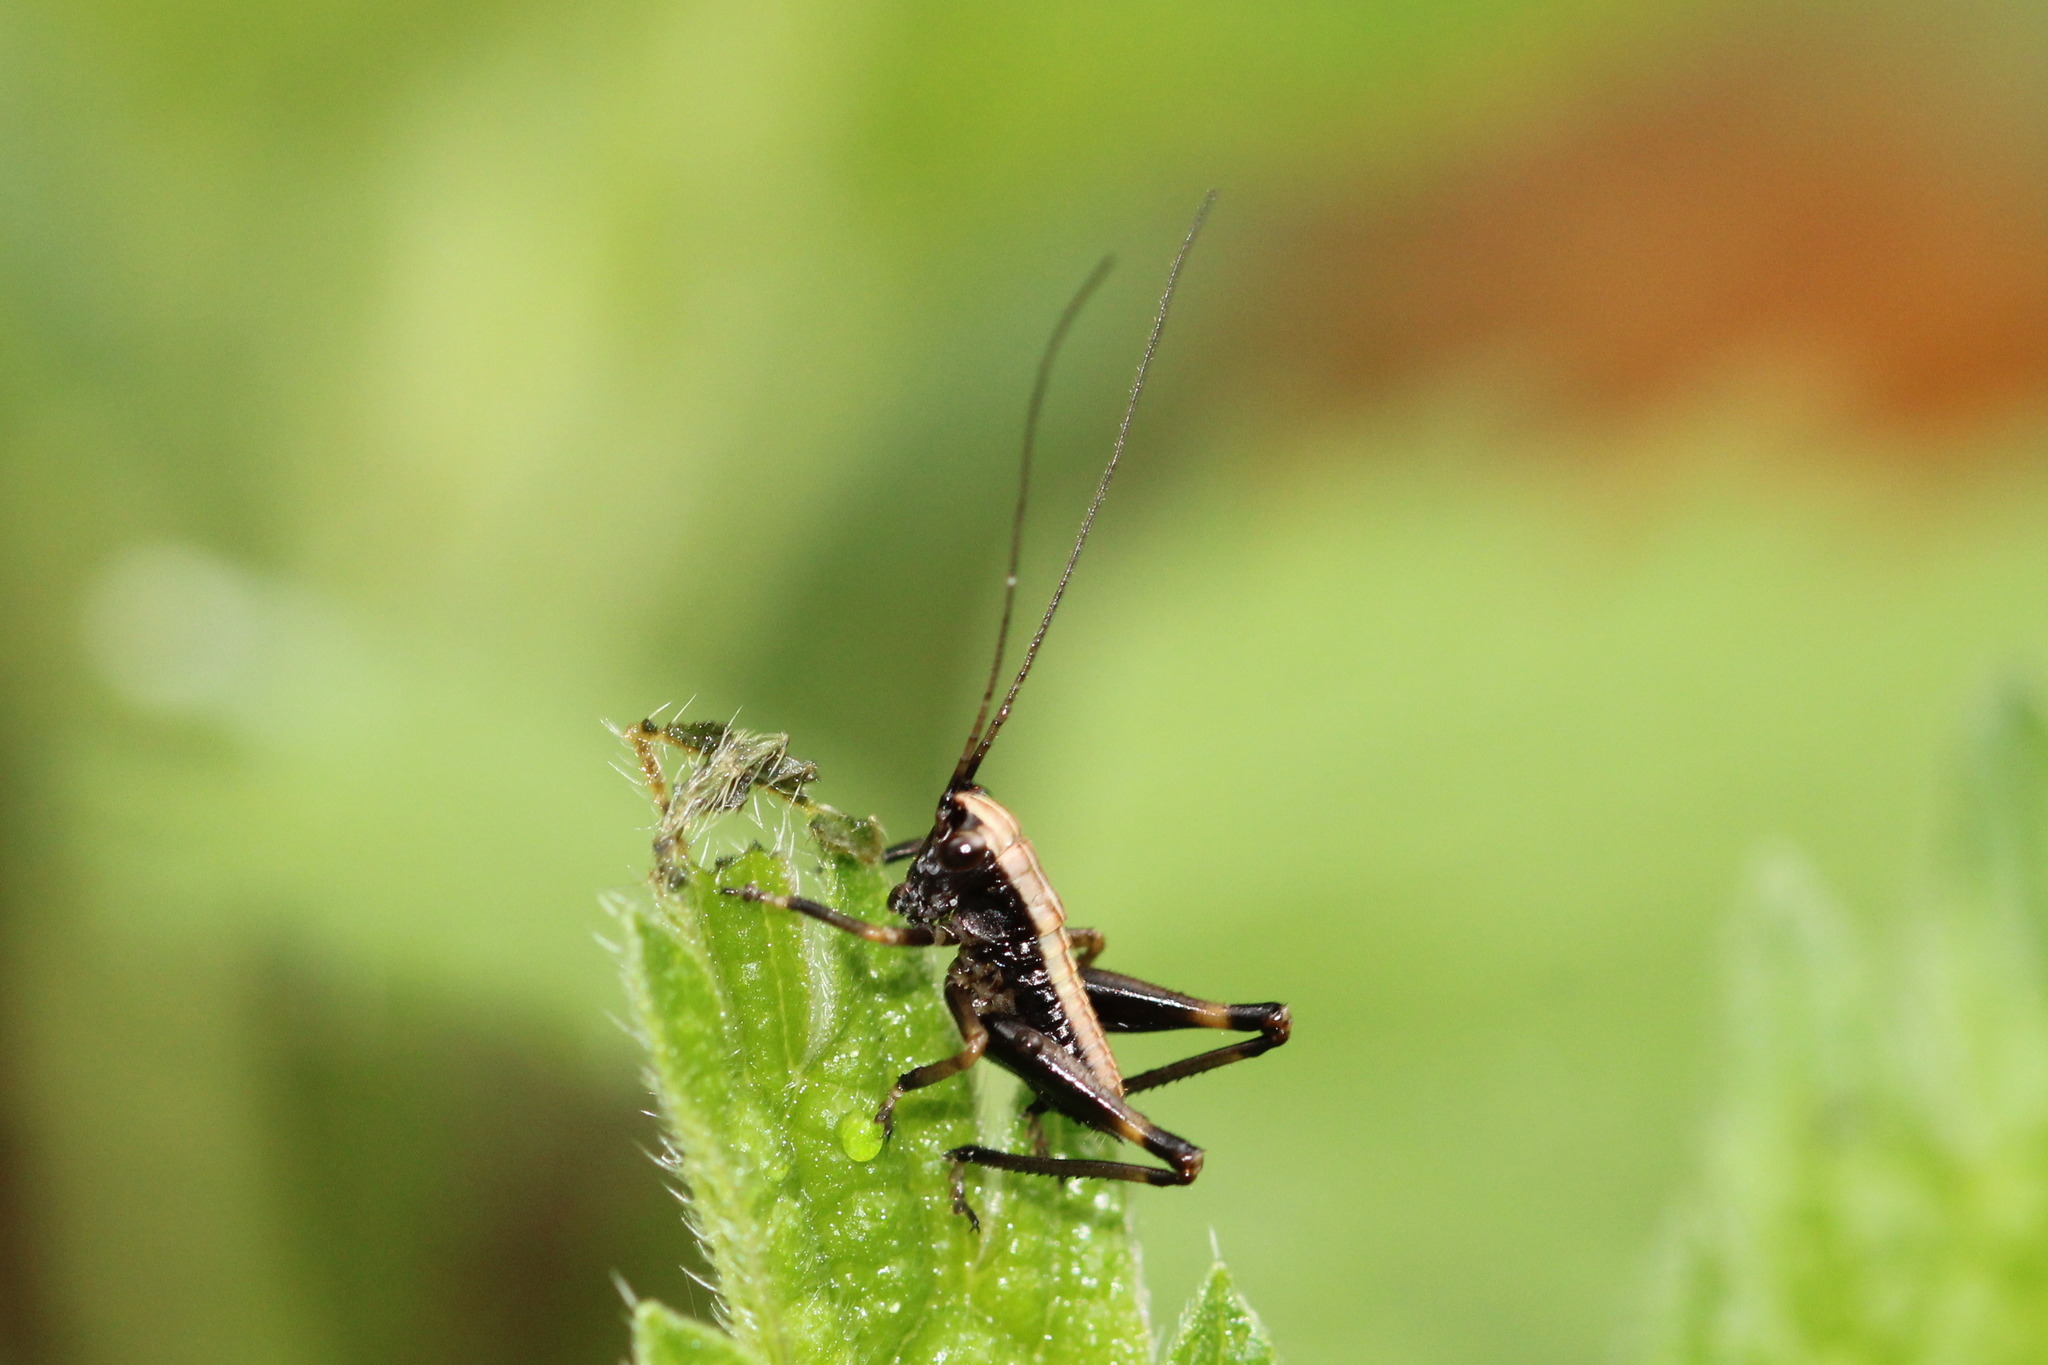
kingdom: Animalia
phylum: Arthropoda
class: Insecta
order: Orthoptera
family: Tettigoniidae
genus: Pholidoptera
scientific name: Pholidoptera griseoaptera
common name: Dark bush-cricket
